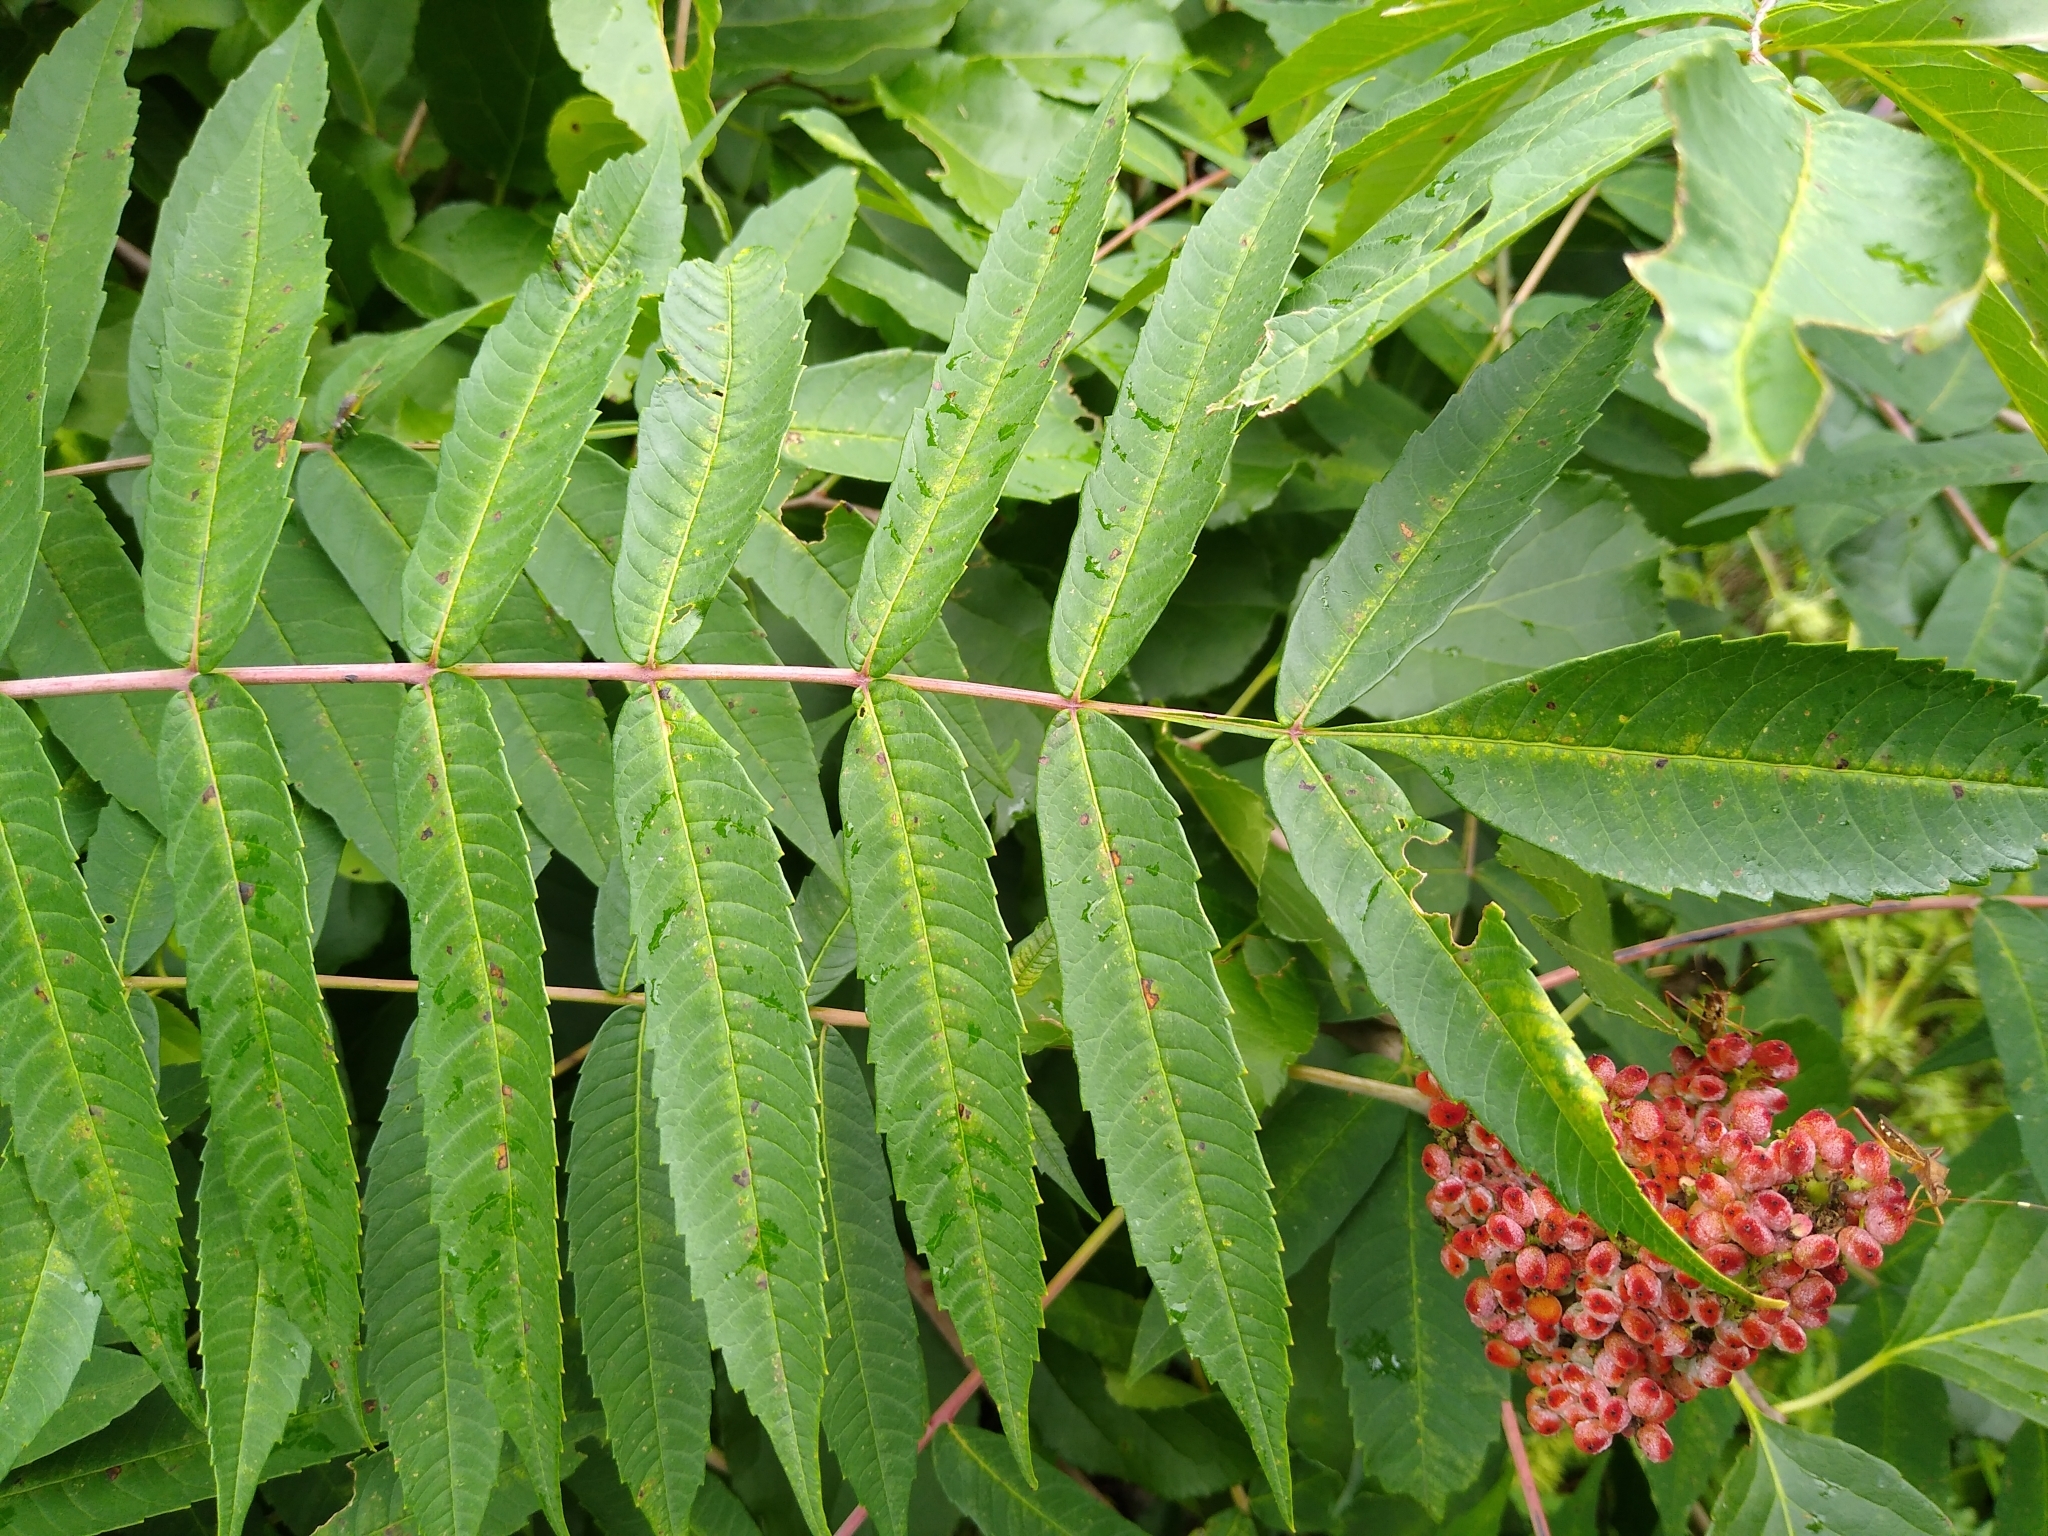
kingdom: Plantae
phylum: Tracheophyta
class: Magnoliopsida
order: Sapindales
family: Anacardiaceae
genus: Rhus
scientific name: Rhus glabra
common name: Scarlet sumac
